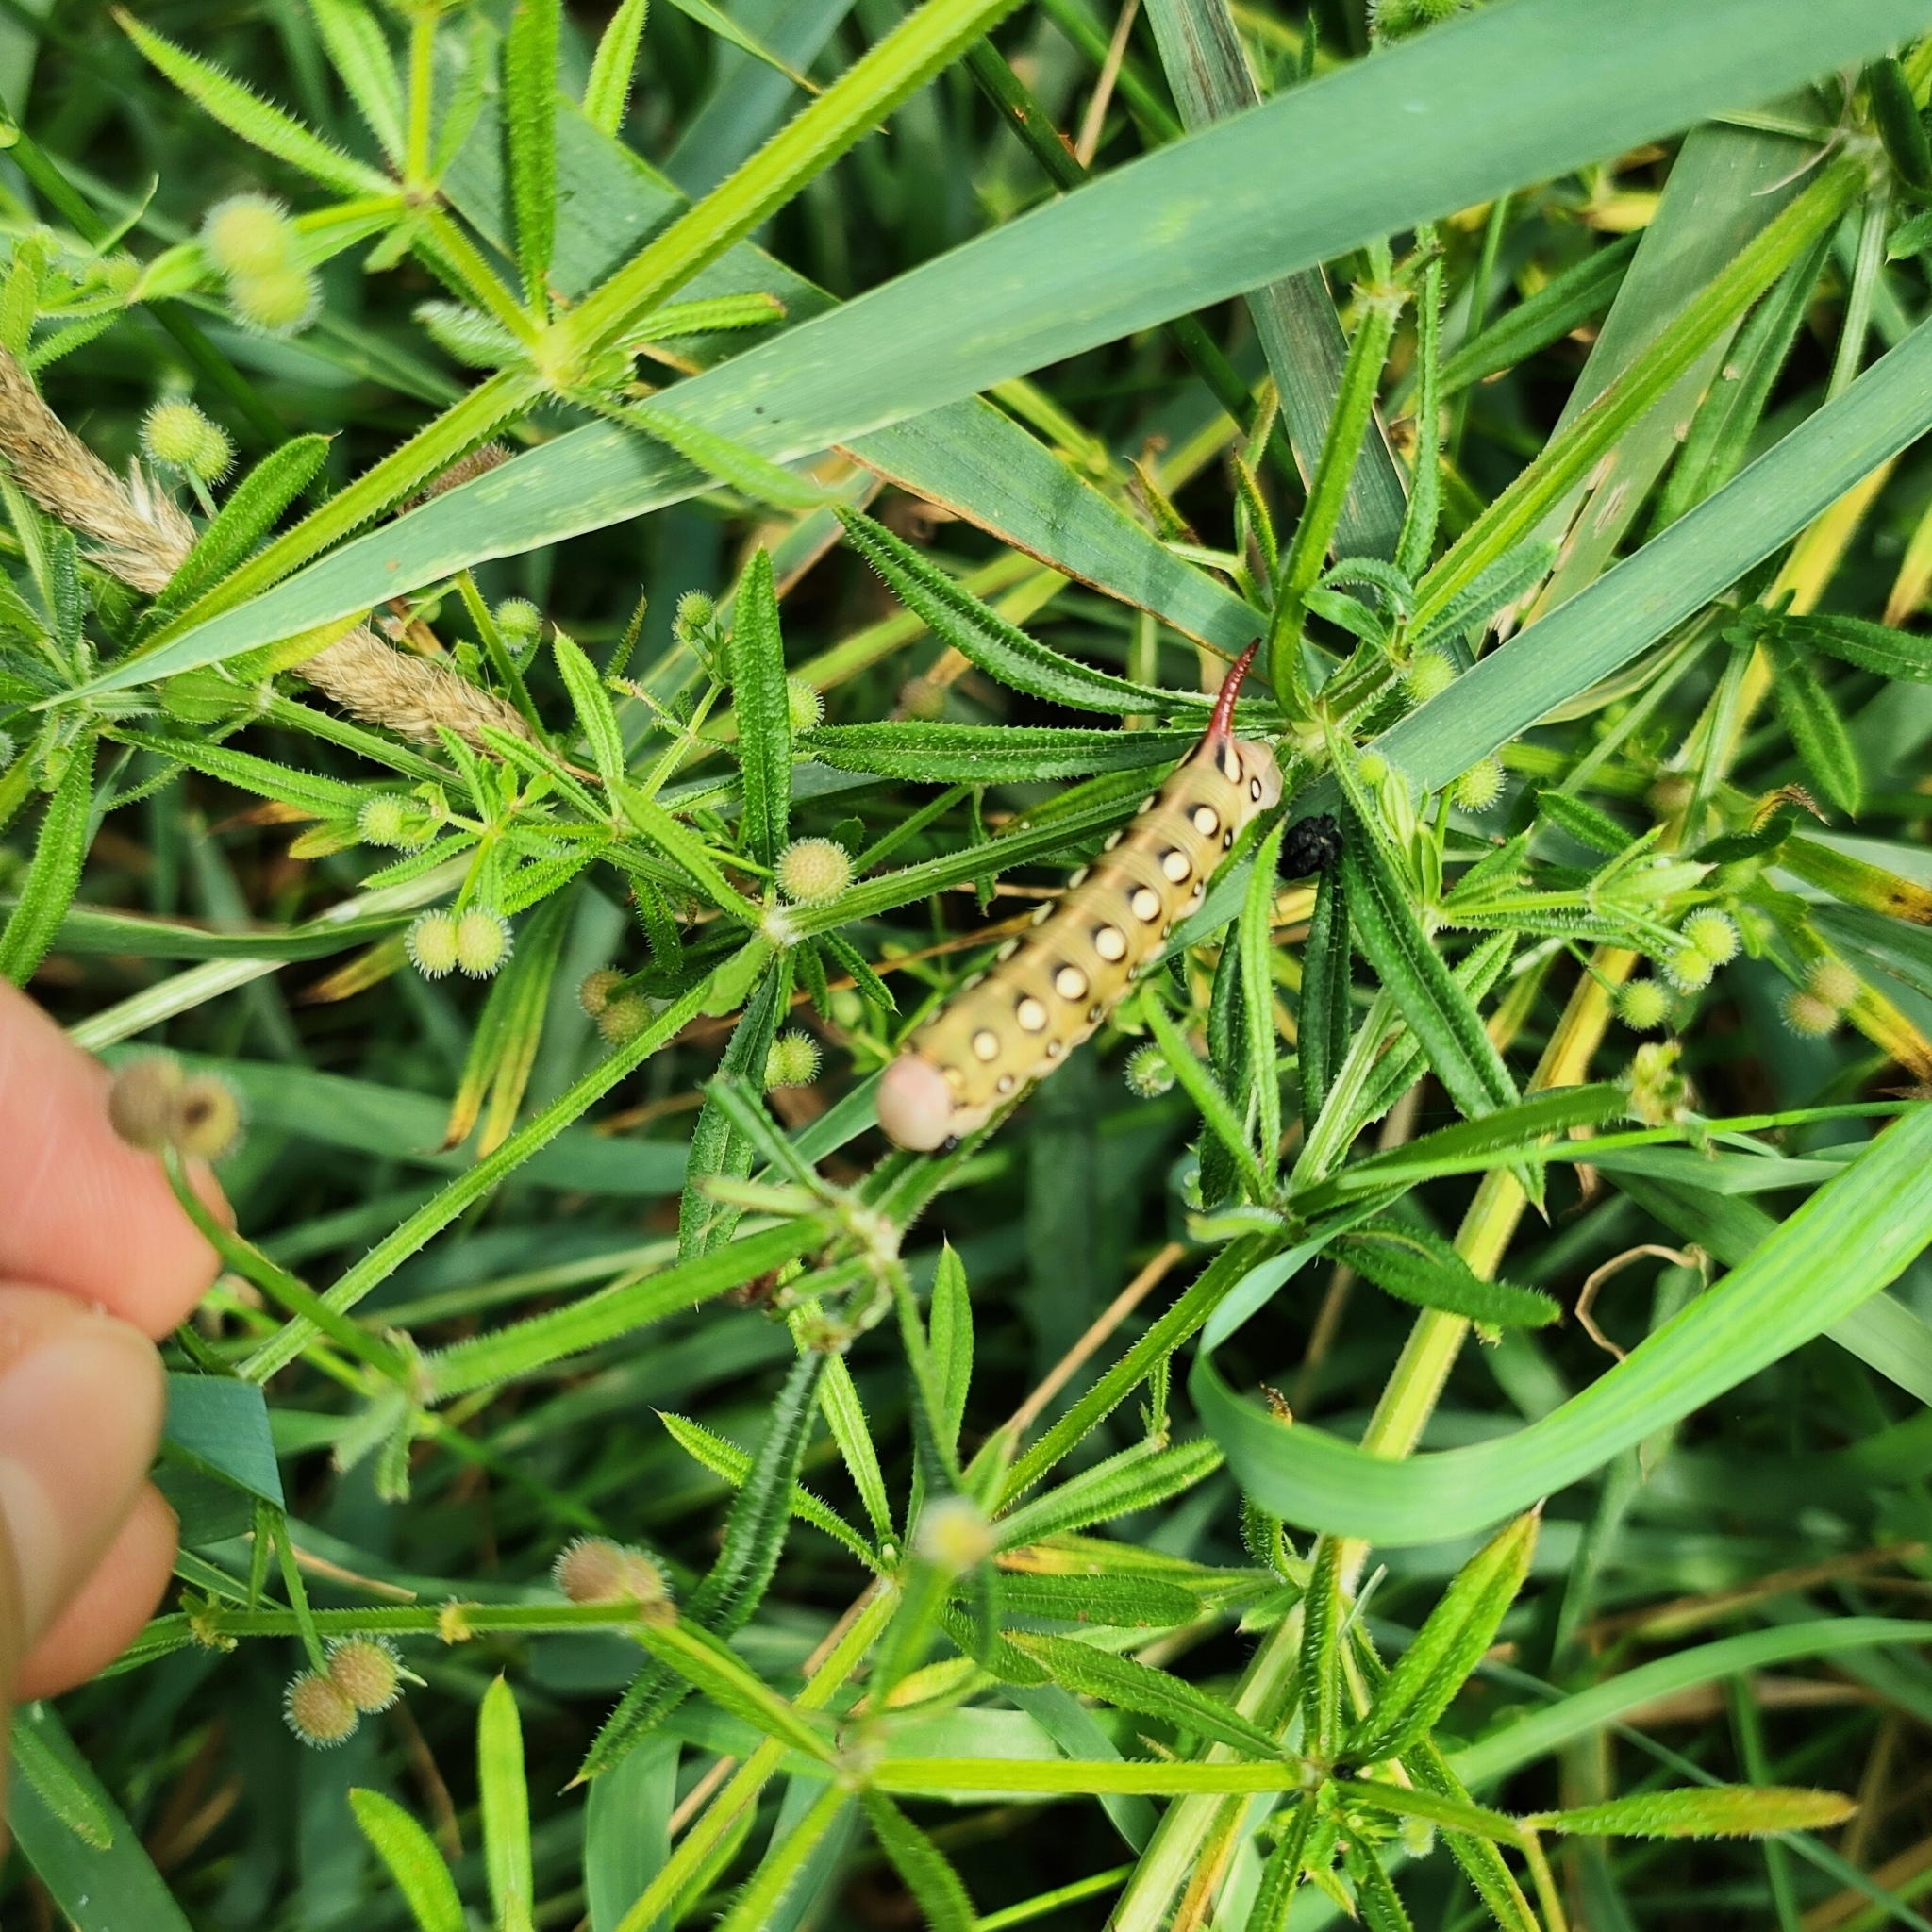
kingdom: Animalia
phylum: Arthropoda
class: Insecta
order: Lepidoptera
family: Sphingidae
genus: Hyles
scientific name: Hyles gallii
